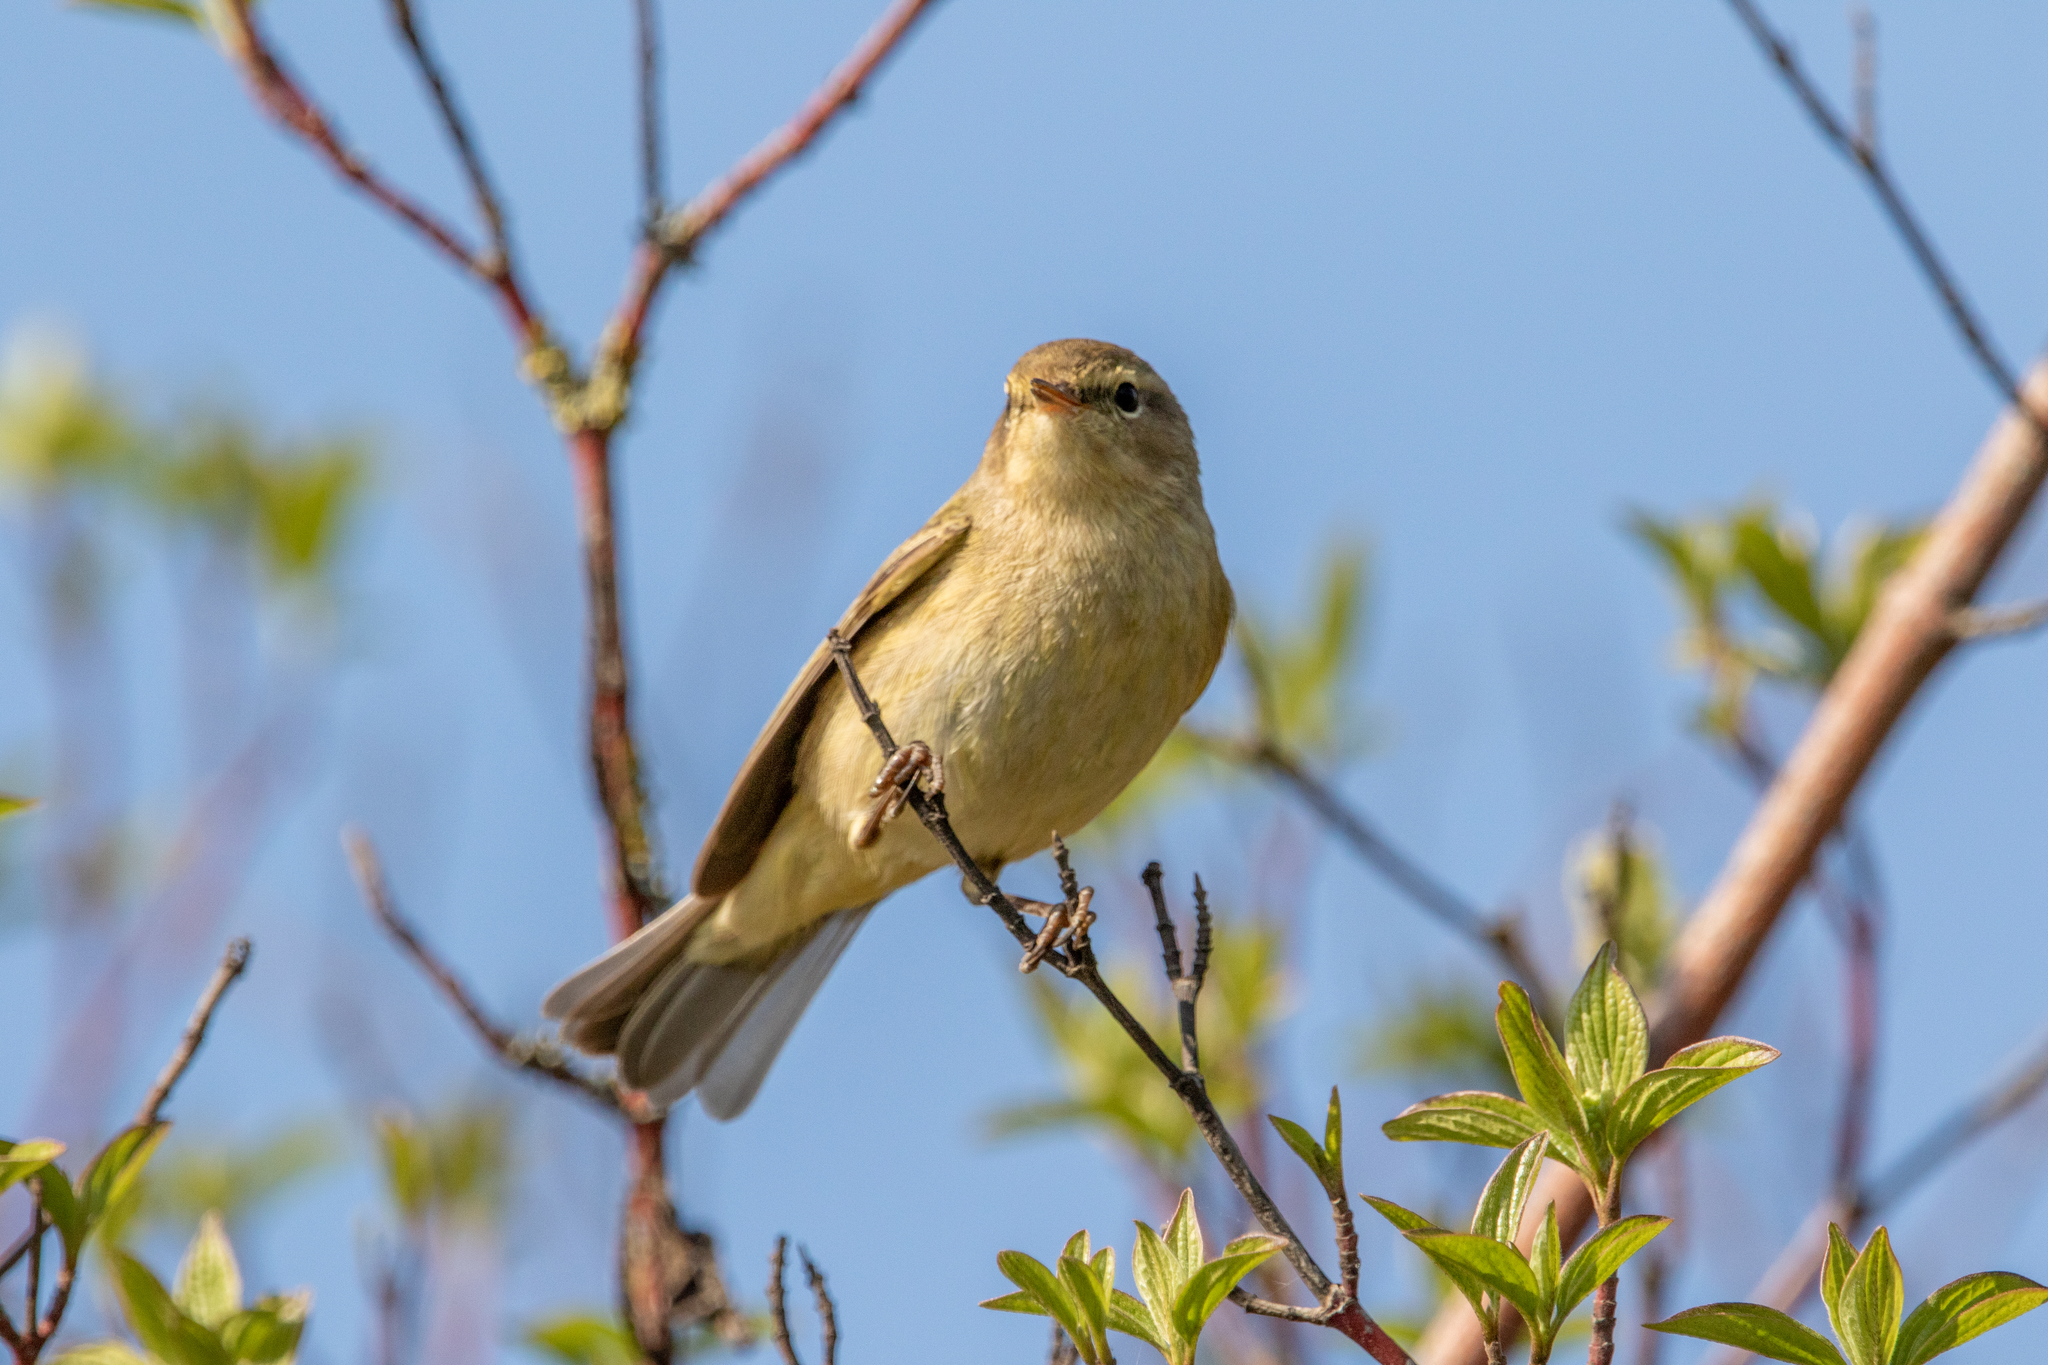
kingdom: Animalia
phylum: Chordata
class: Aves
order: Passeriformes
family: Phylloscopidae
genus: Phylloscopus
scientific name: Phylloscopus collybita
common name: Common chiffchaff
